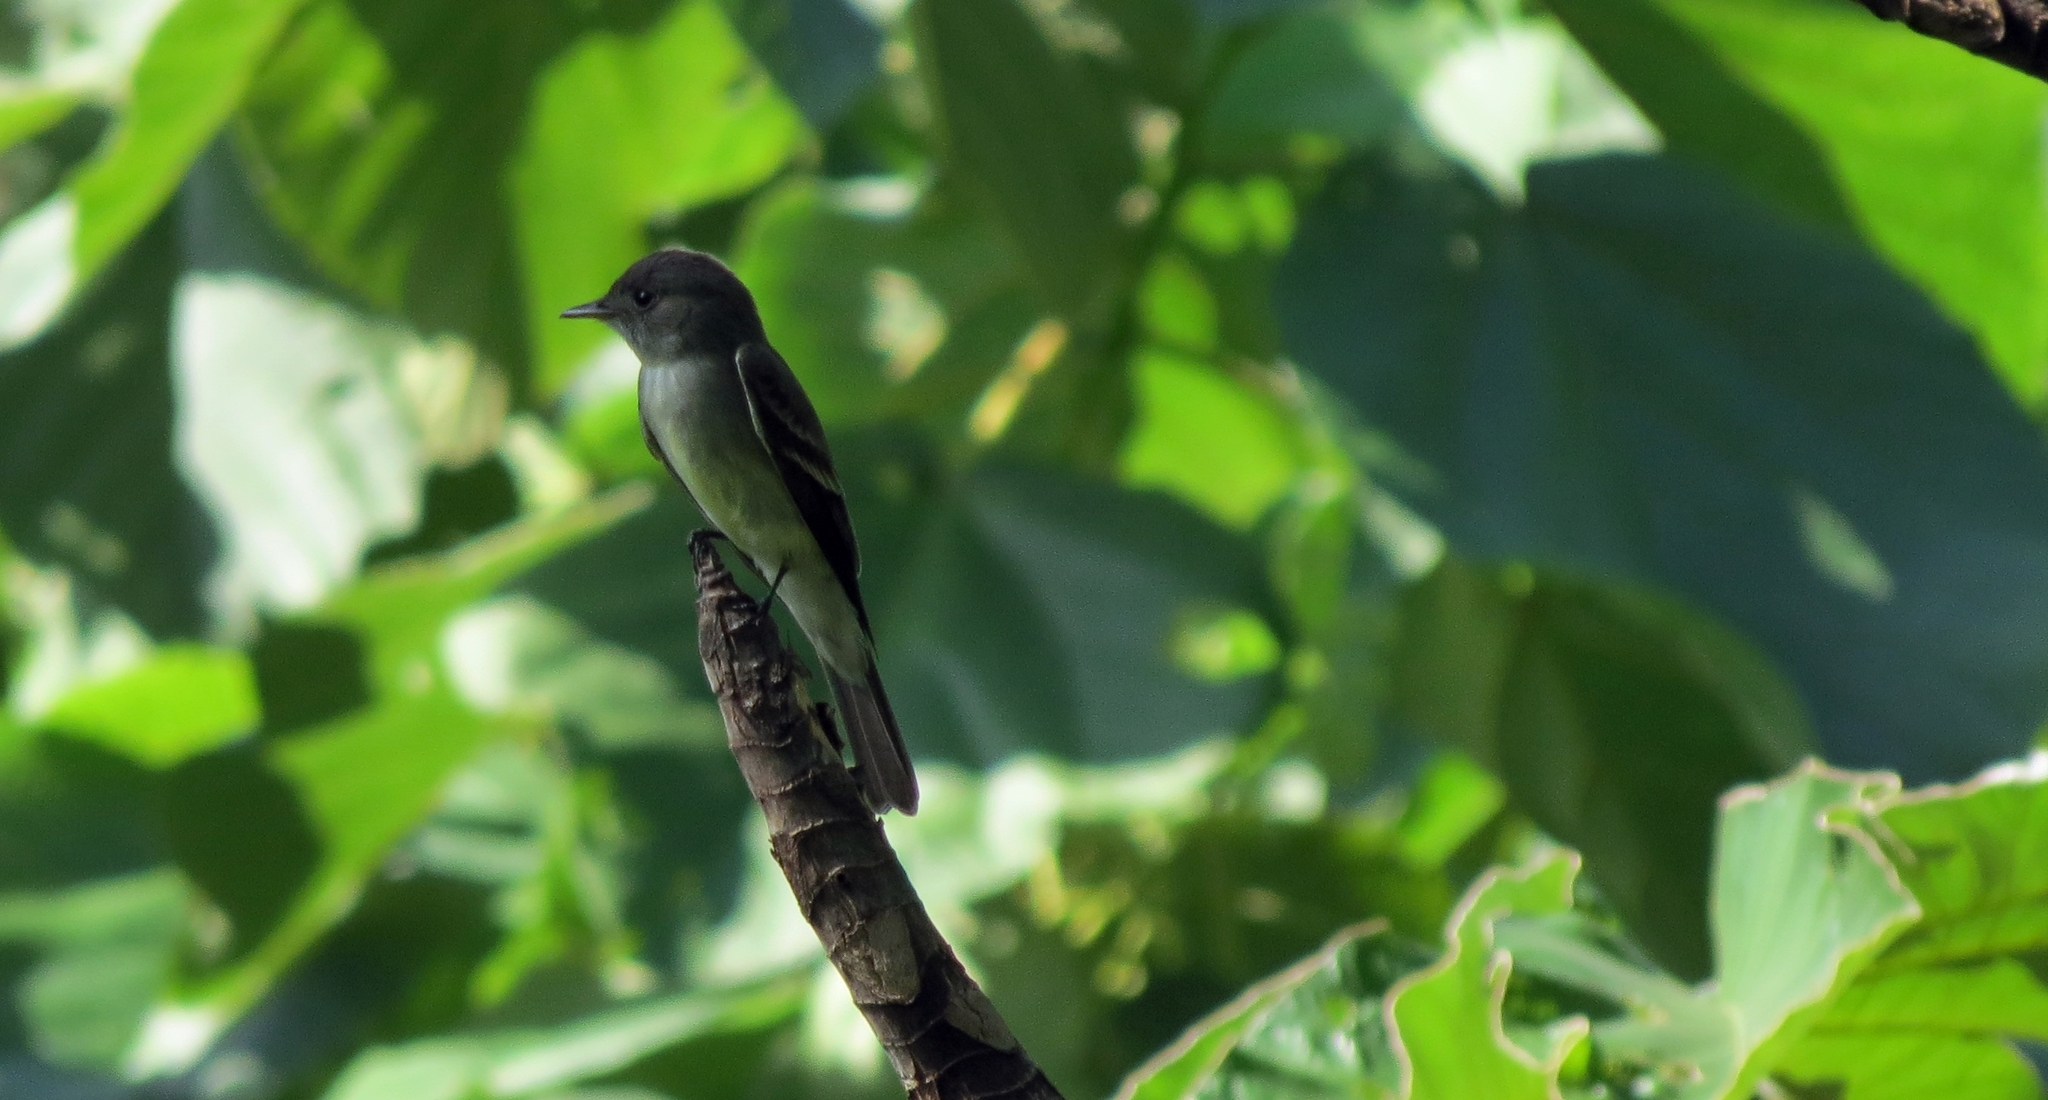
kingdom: Animalia
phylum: Chordata
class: Aves
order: Passeriformes
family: Tyrannidae
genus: Contopus
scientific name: Contopus virens
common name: Eastern wood-pewee
